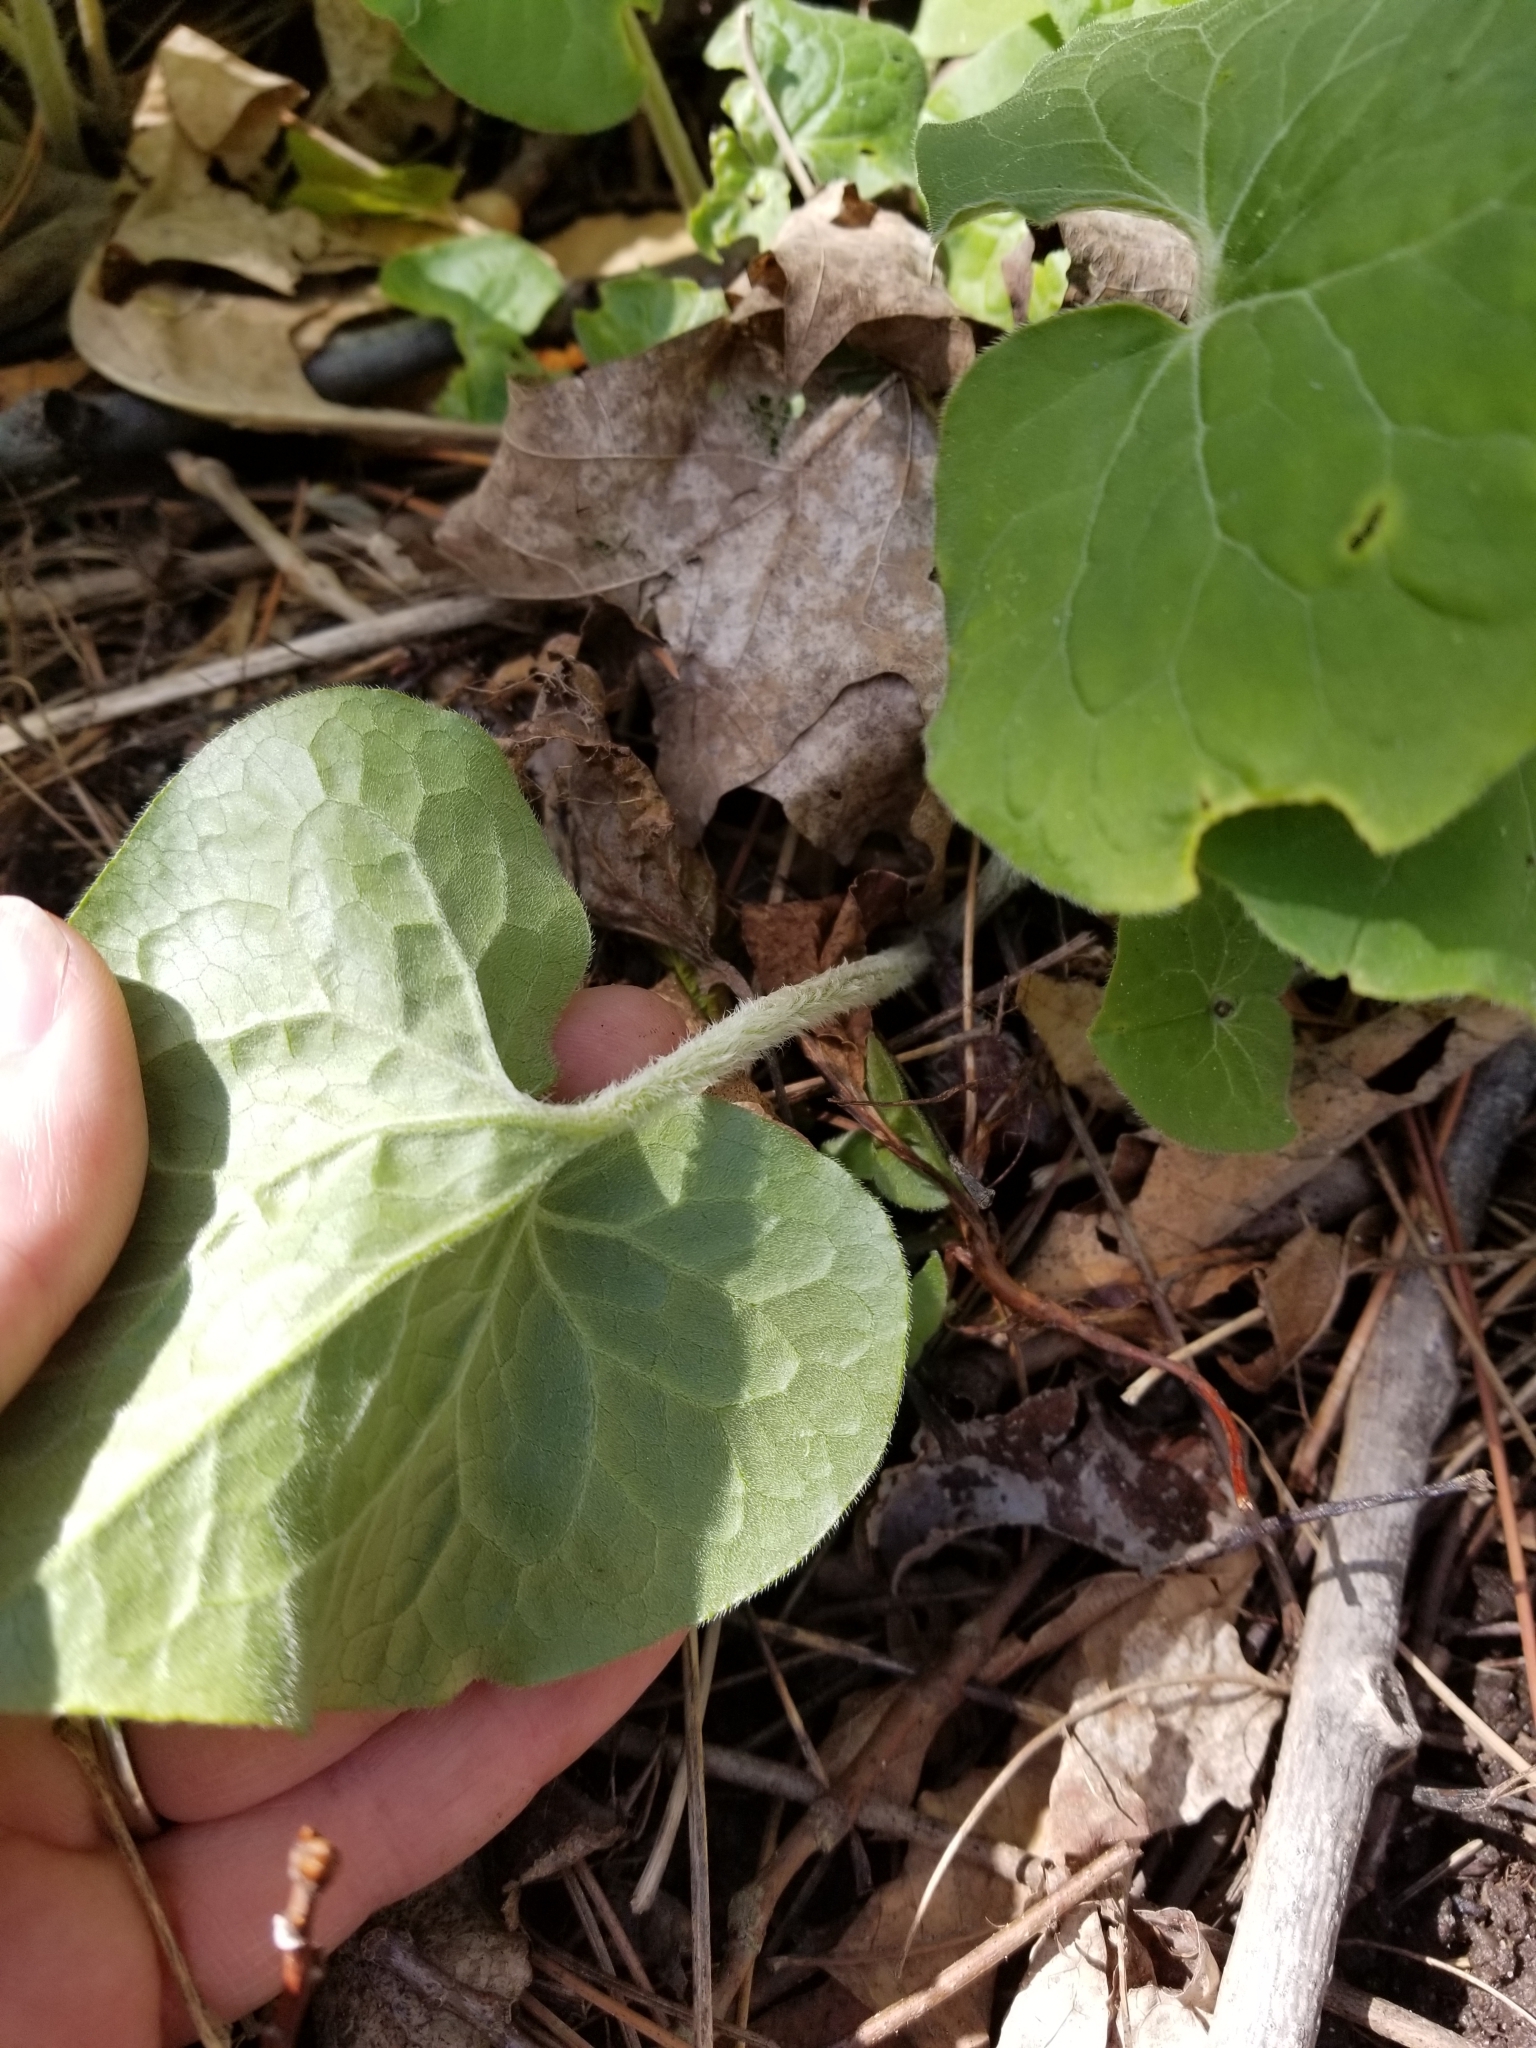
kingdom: Plantae
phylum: Tracheophyta
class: Magnoliopsida
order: Piperales
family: Aristolochiaceae
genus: Asarum
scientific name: Asarum canadense
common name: Wild ginger
